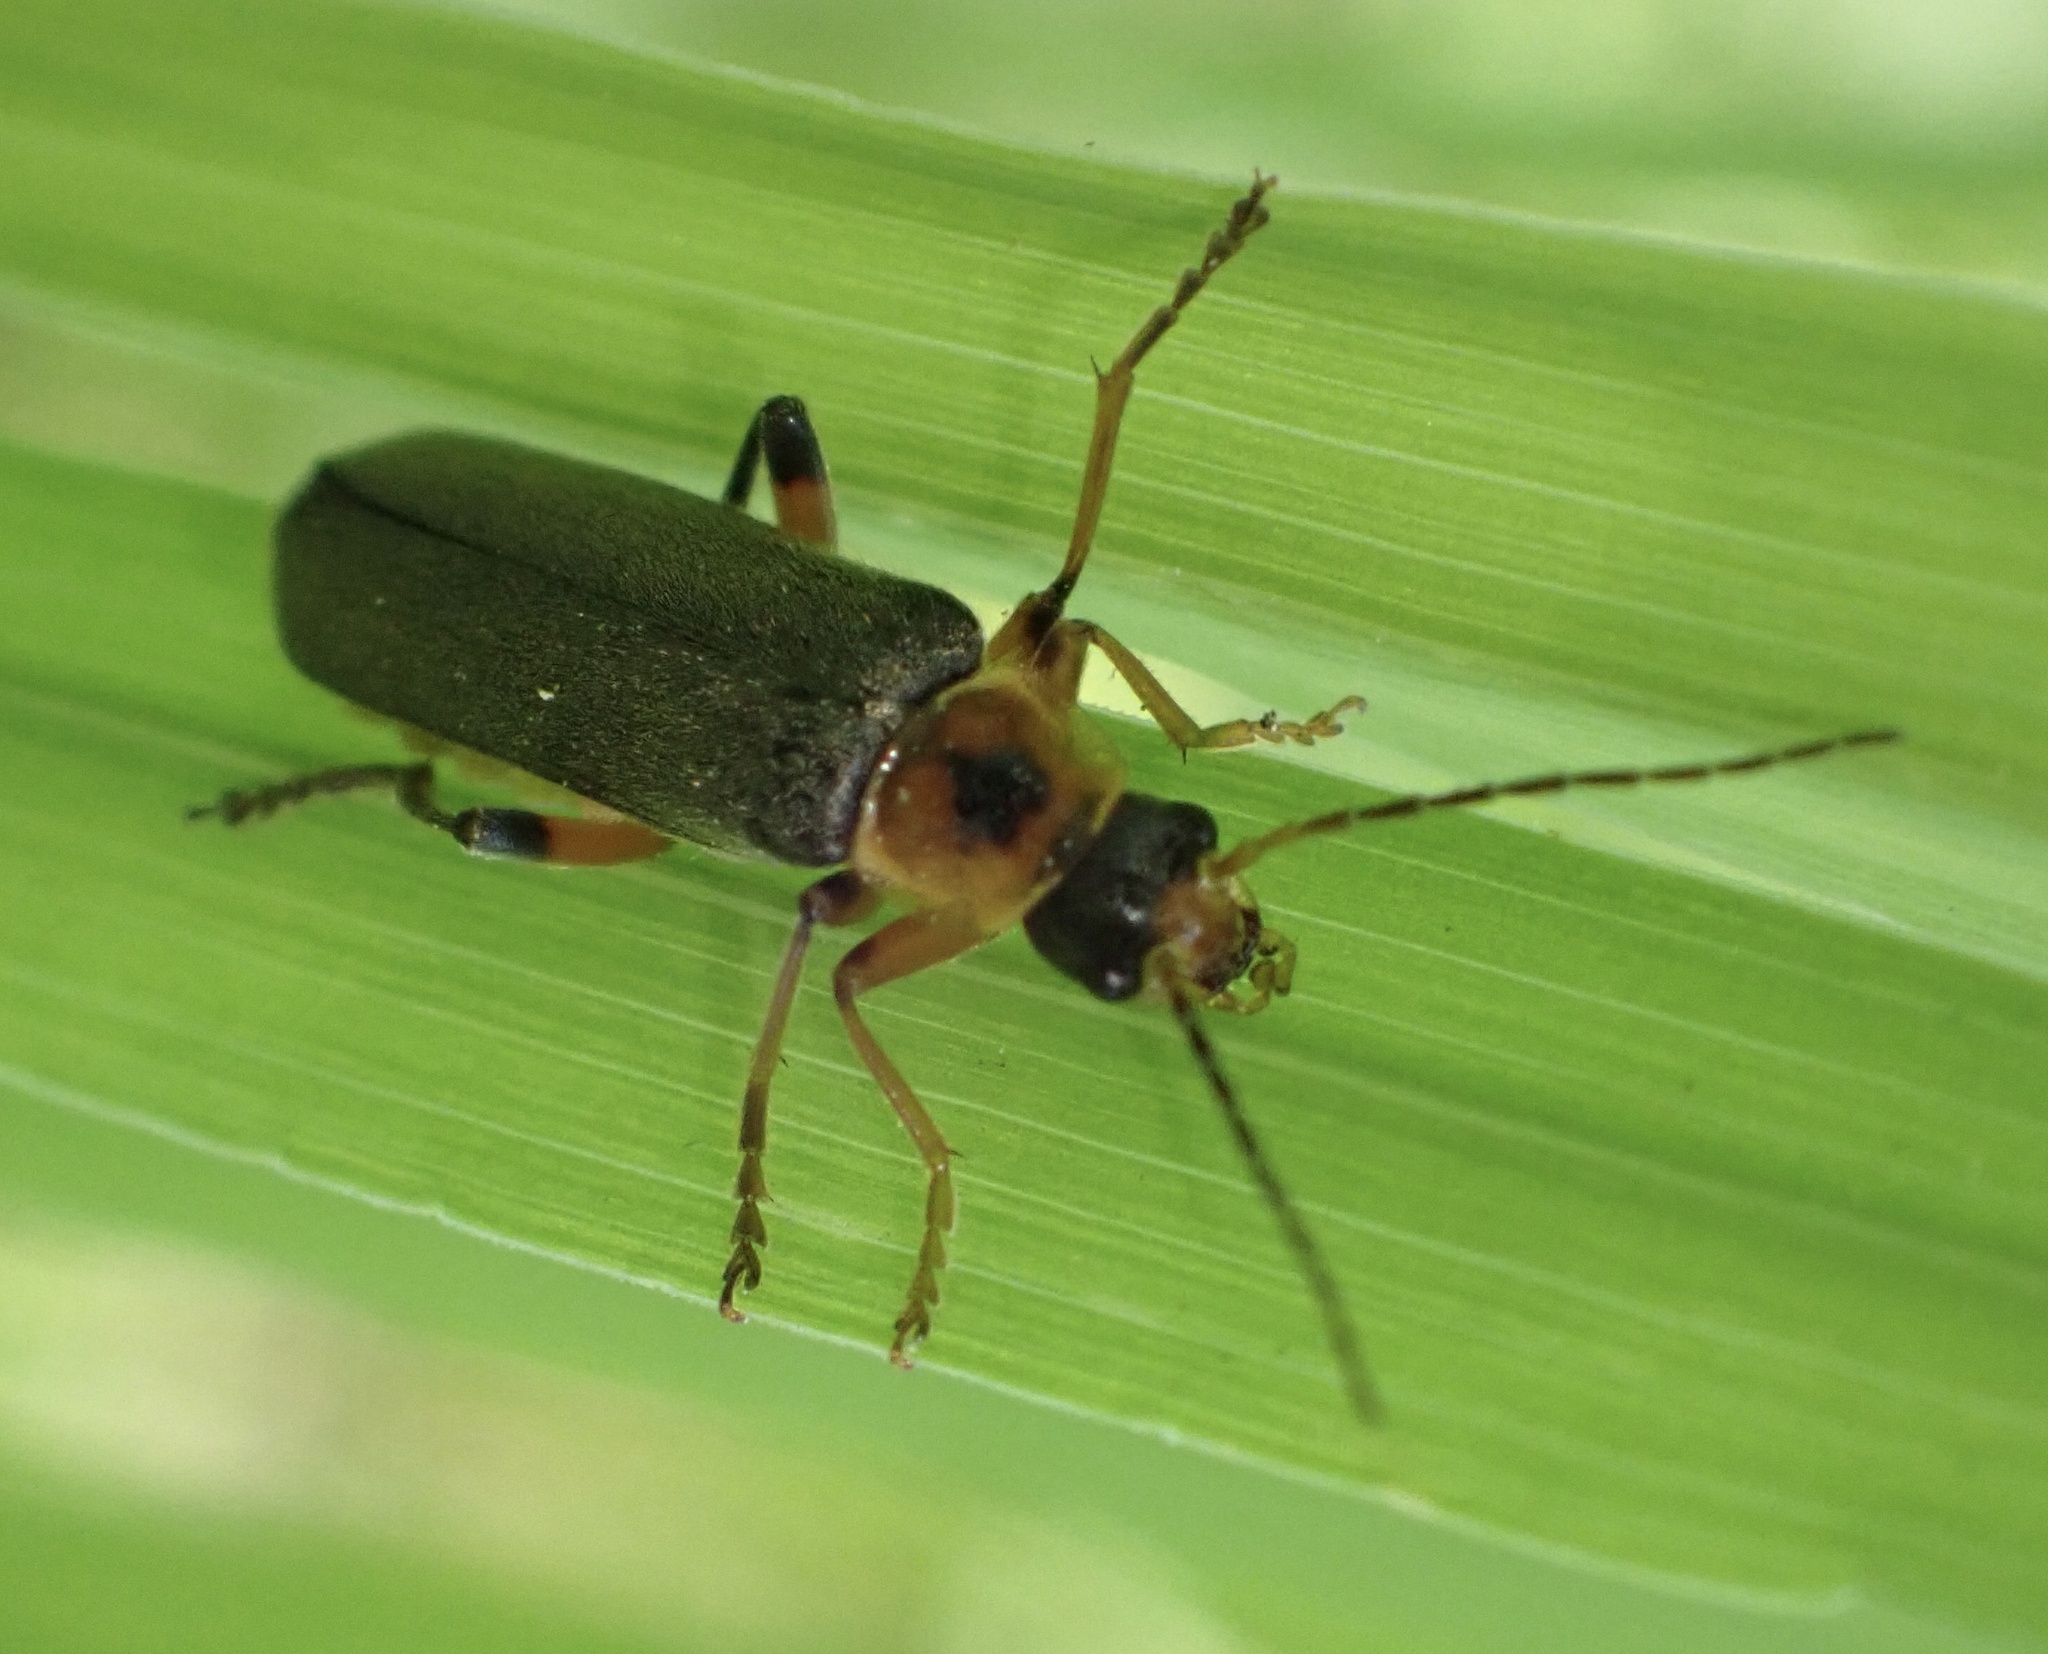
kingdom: Animalia
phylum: Arthropoda
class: Insecta
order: Coleoptera
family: Cantharidae
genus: Cantharis
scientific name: Cantharis nigricans
